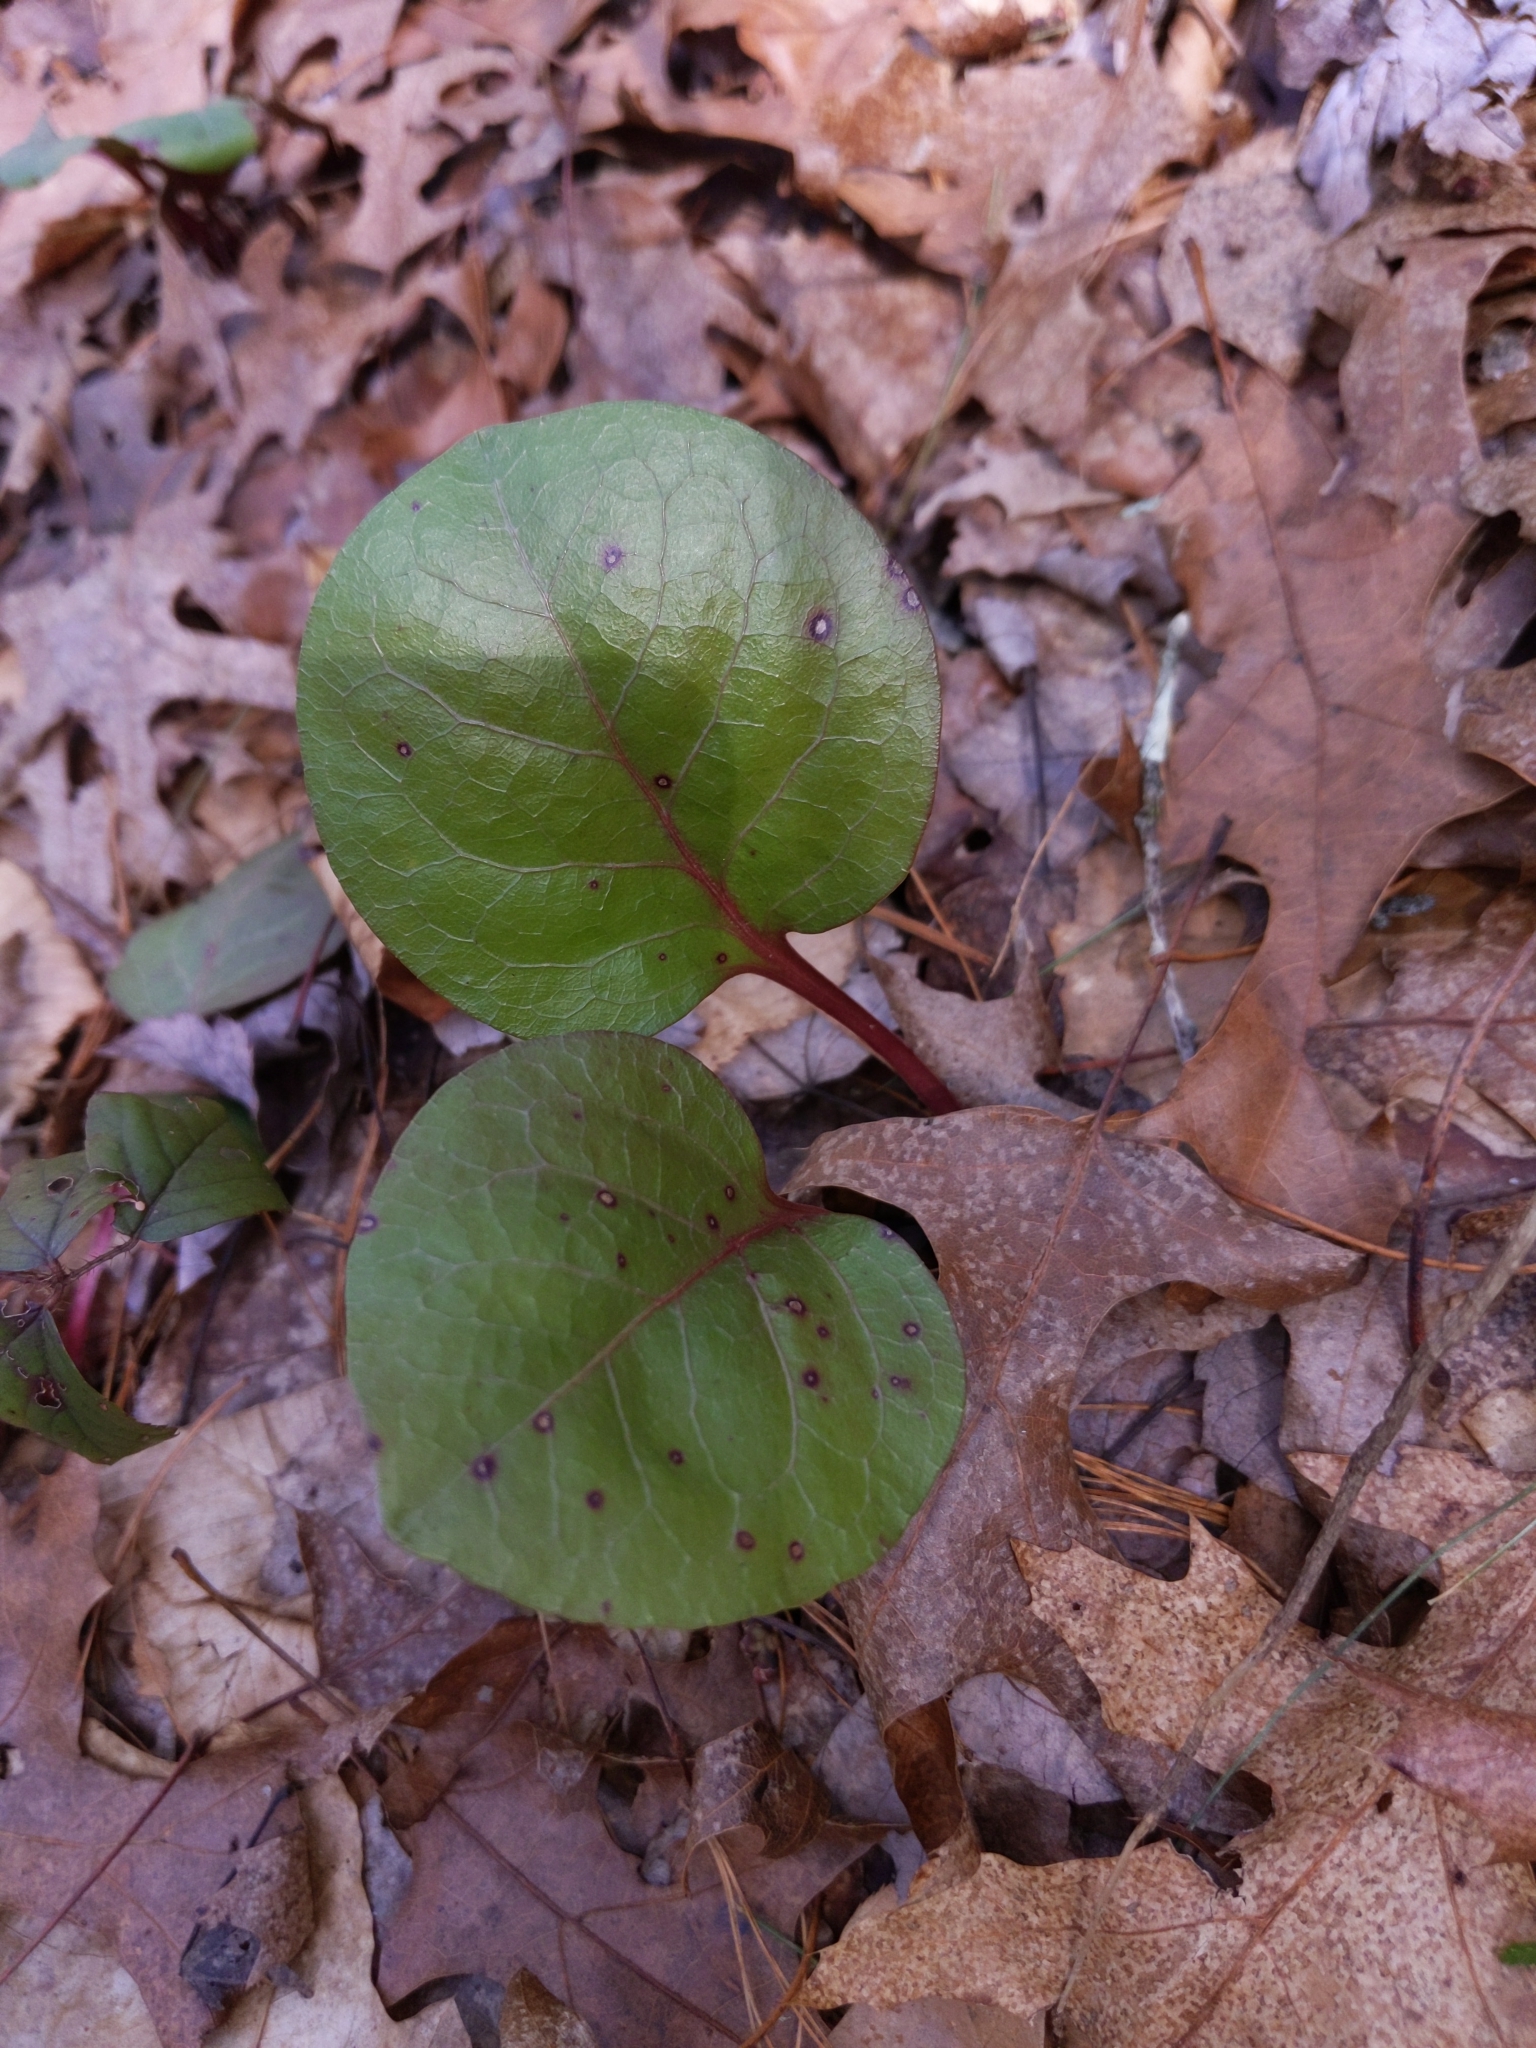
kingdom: Plantae
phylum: Tracheophyta
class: Magnoliopsida
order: Ericales
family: Ericaceae
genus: Pyrola
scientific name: Pyrola americana
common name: American wintergreen
